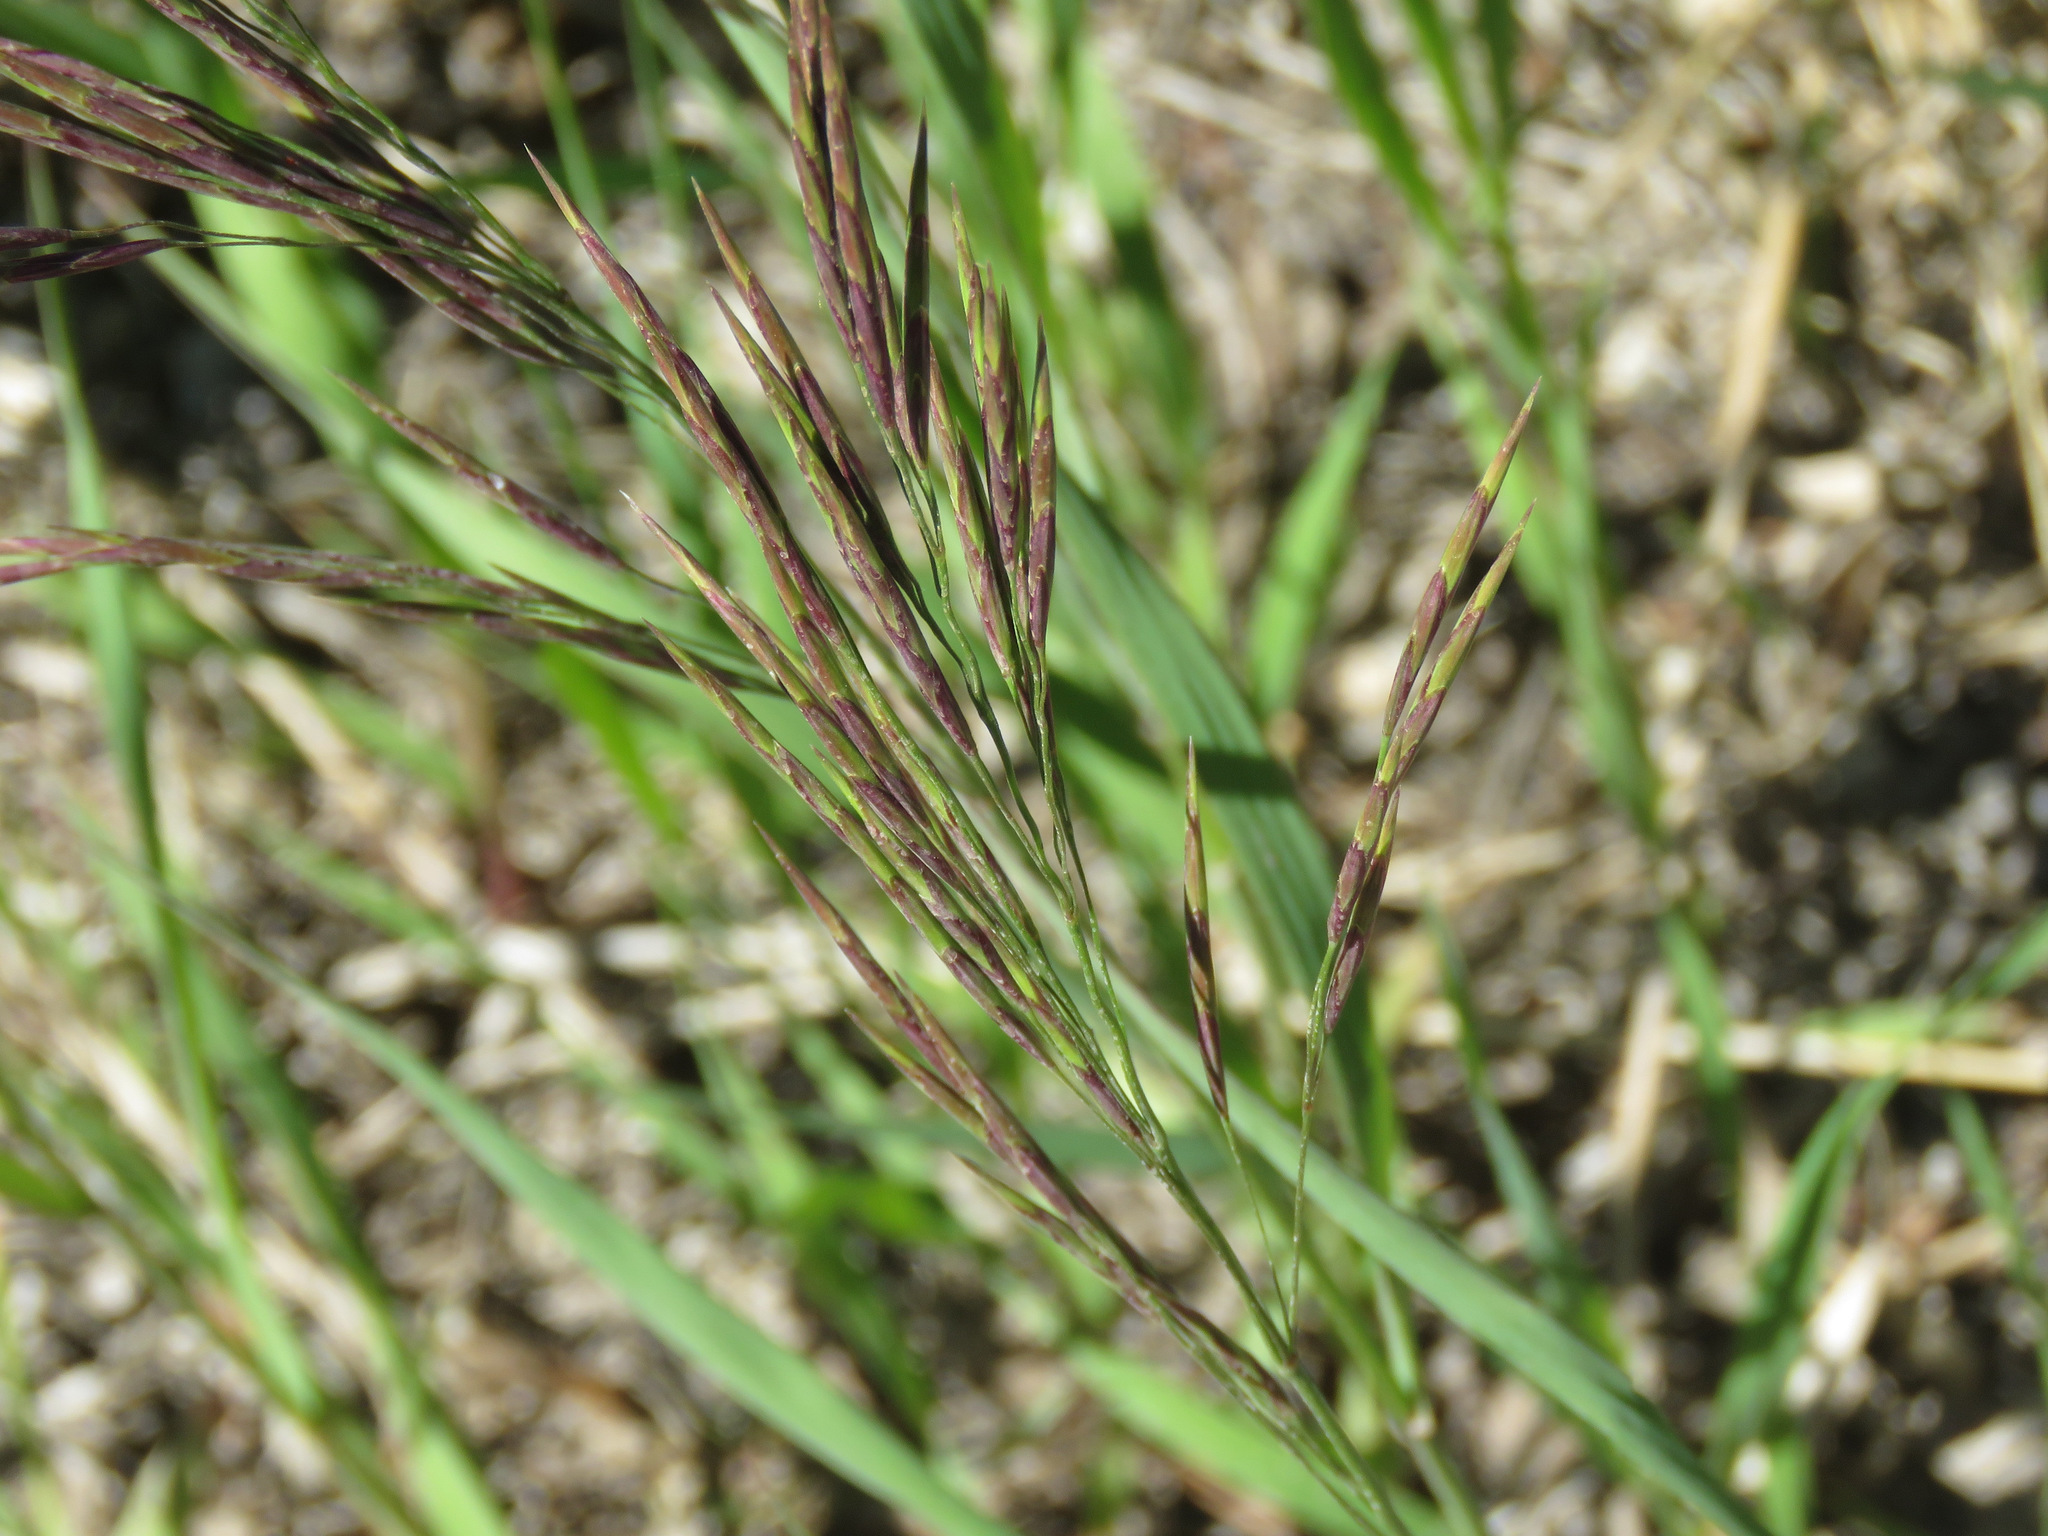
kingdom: Plantae
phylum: Tracheophyta
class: Liliopsida
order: Poales
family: Poaceae
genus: Bromus
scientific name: Bromus inermis
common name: Smooth brome
